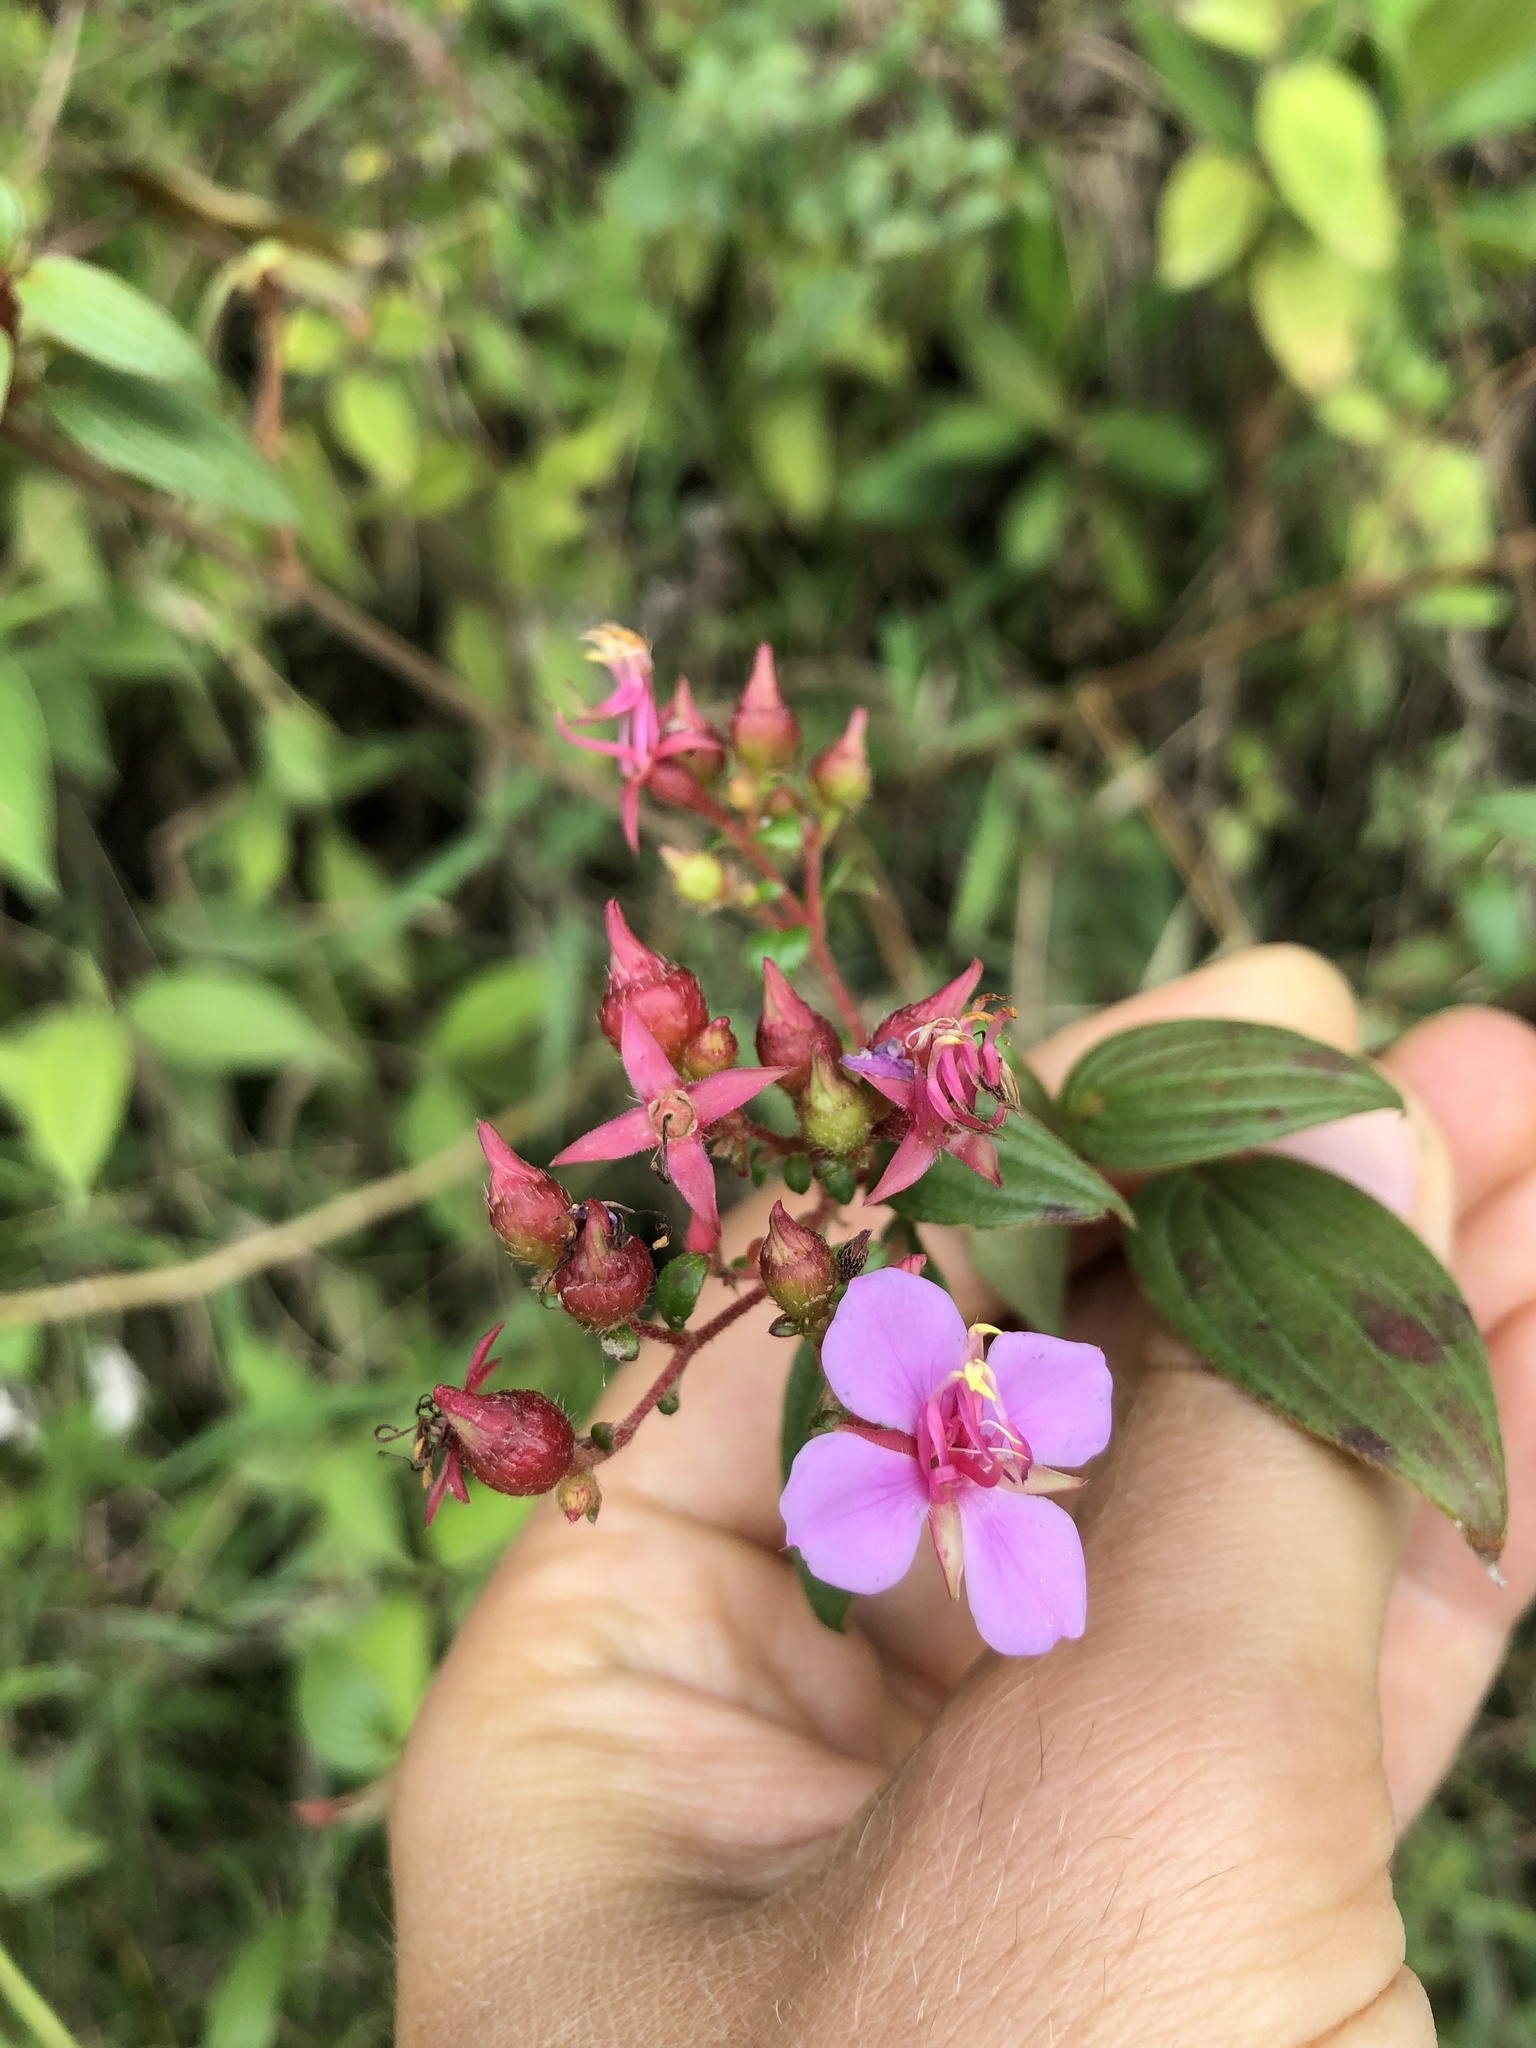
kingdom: Plantae
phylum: Tracheophyta
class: Magnoliopsida
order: Myrtales
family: Melastomataceae
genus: Monochaetum
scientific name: Monochaetum multiflorum
